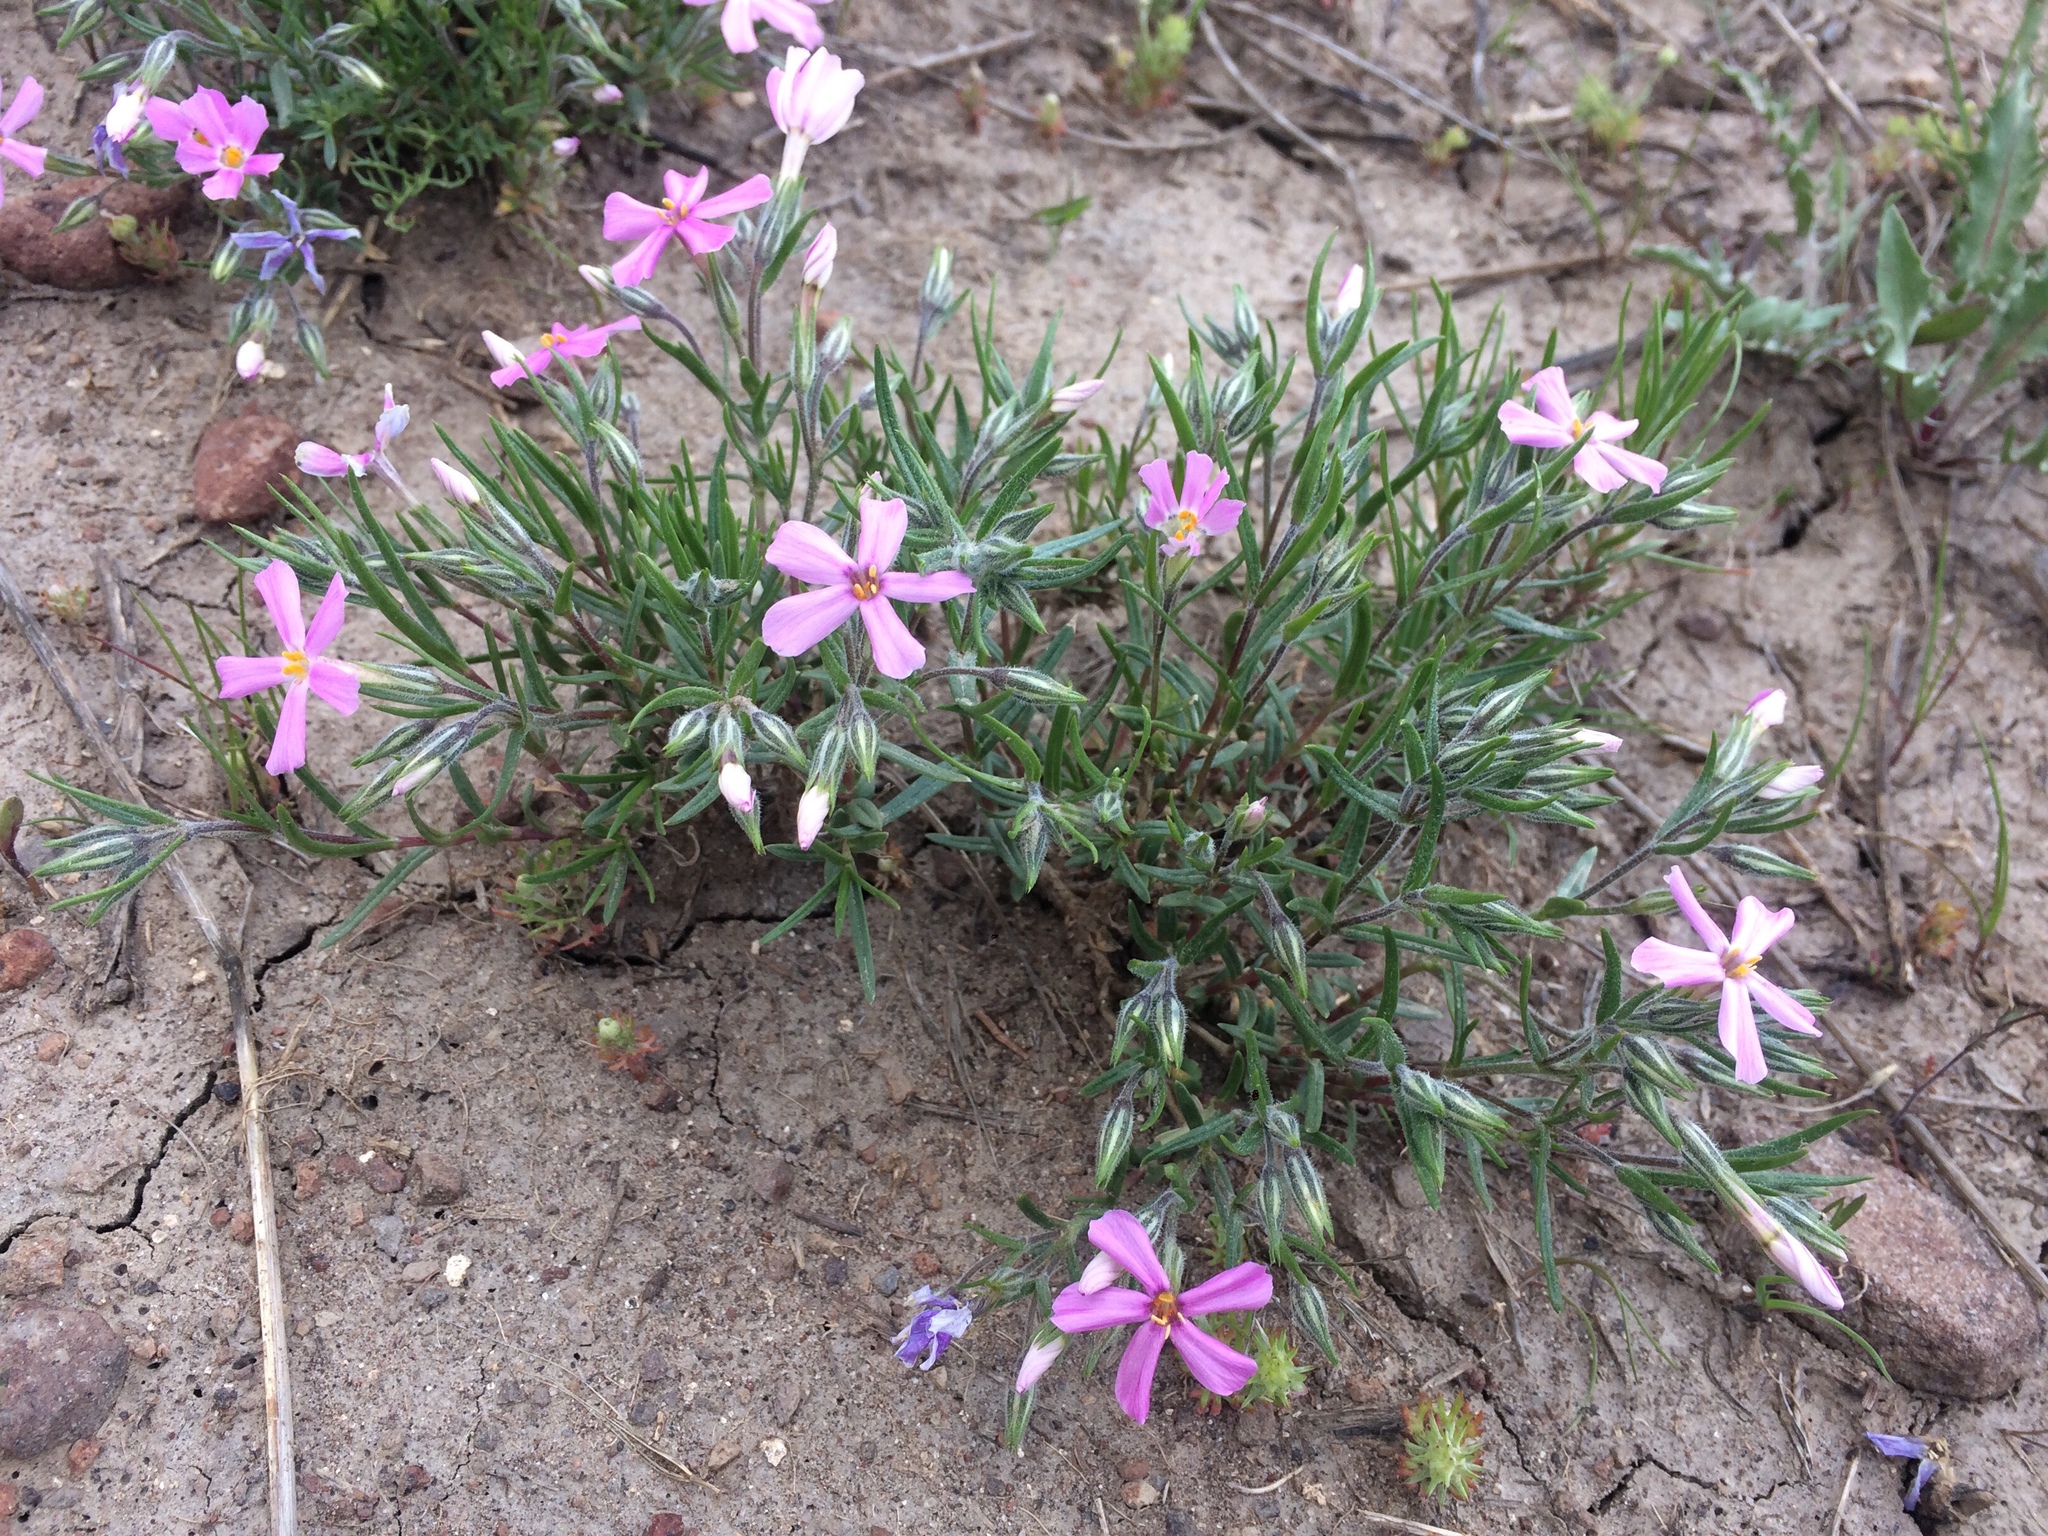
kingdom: Plantae
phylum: Tracheophyta
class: Magnoliopsida
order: Ericales
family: Polemoniaceae
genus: Phlox
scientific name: Phlox longifolia
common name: Longleaf phlox
